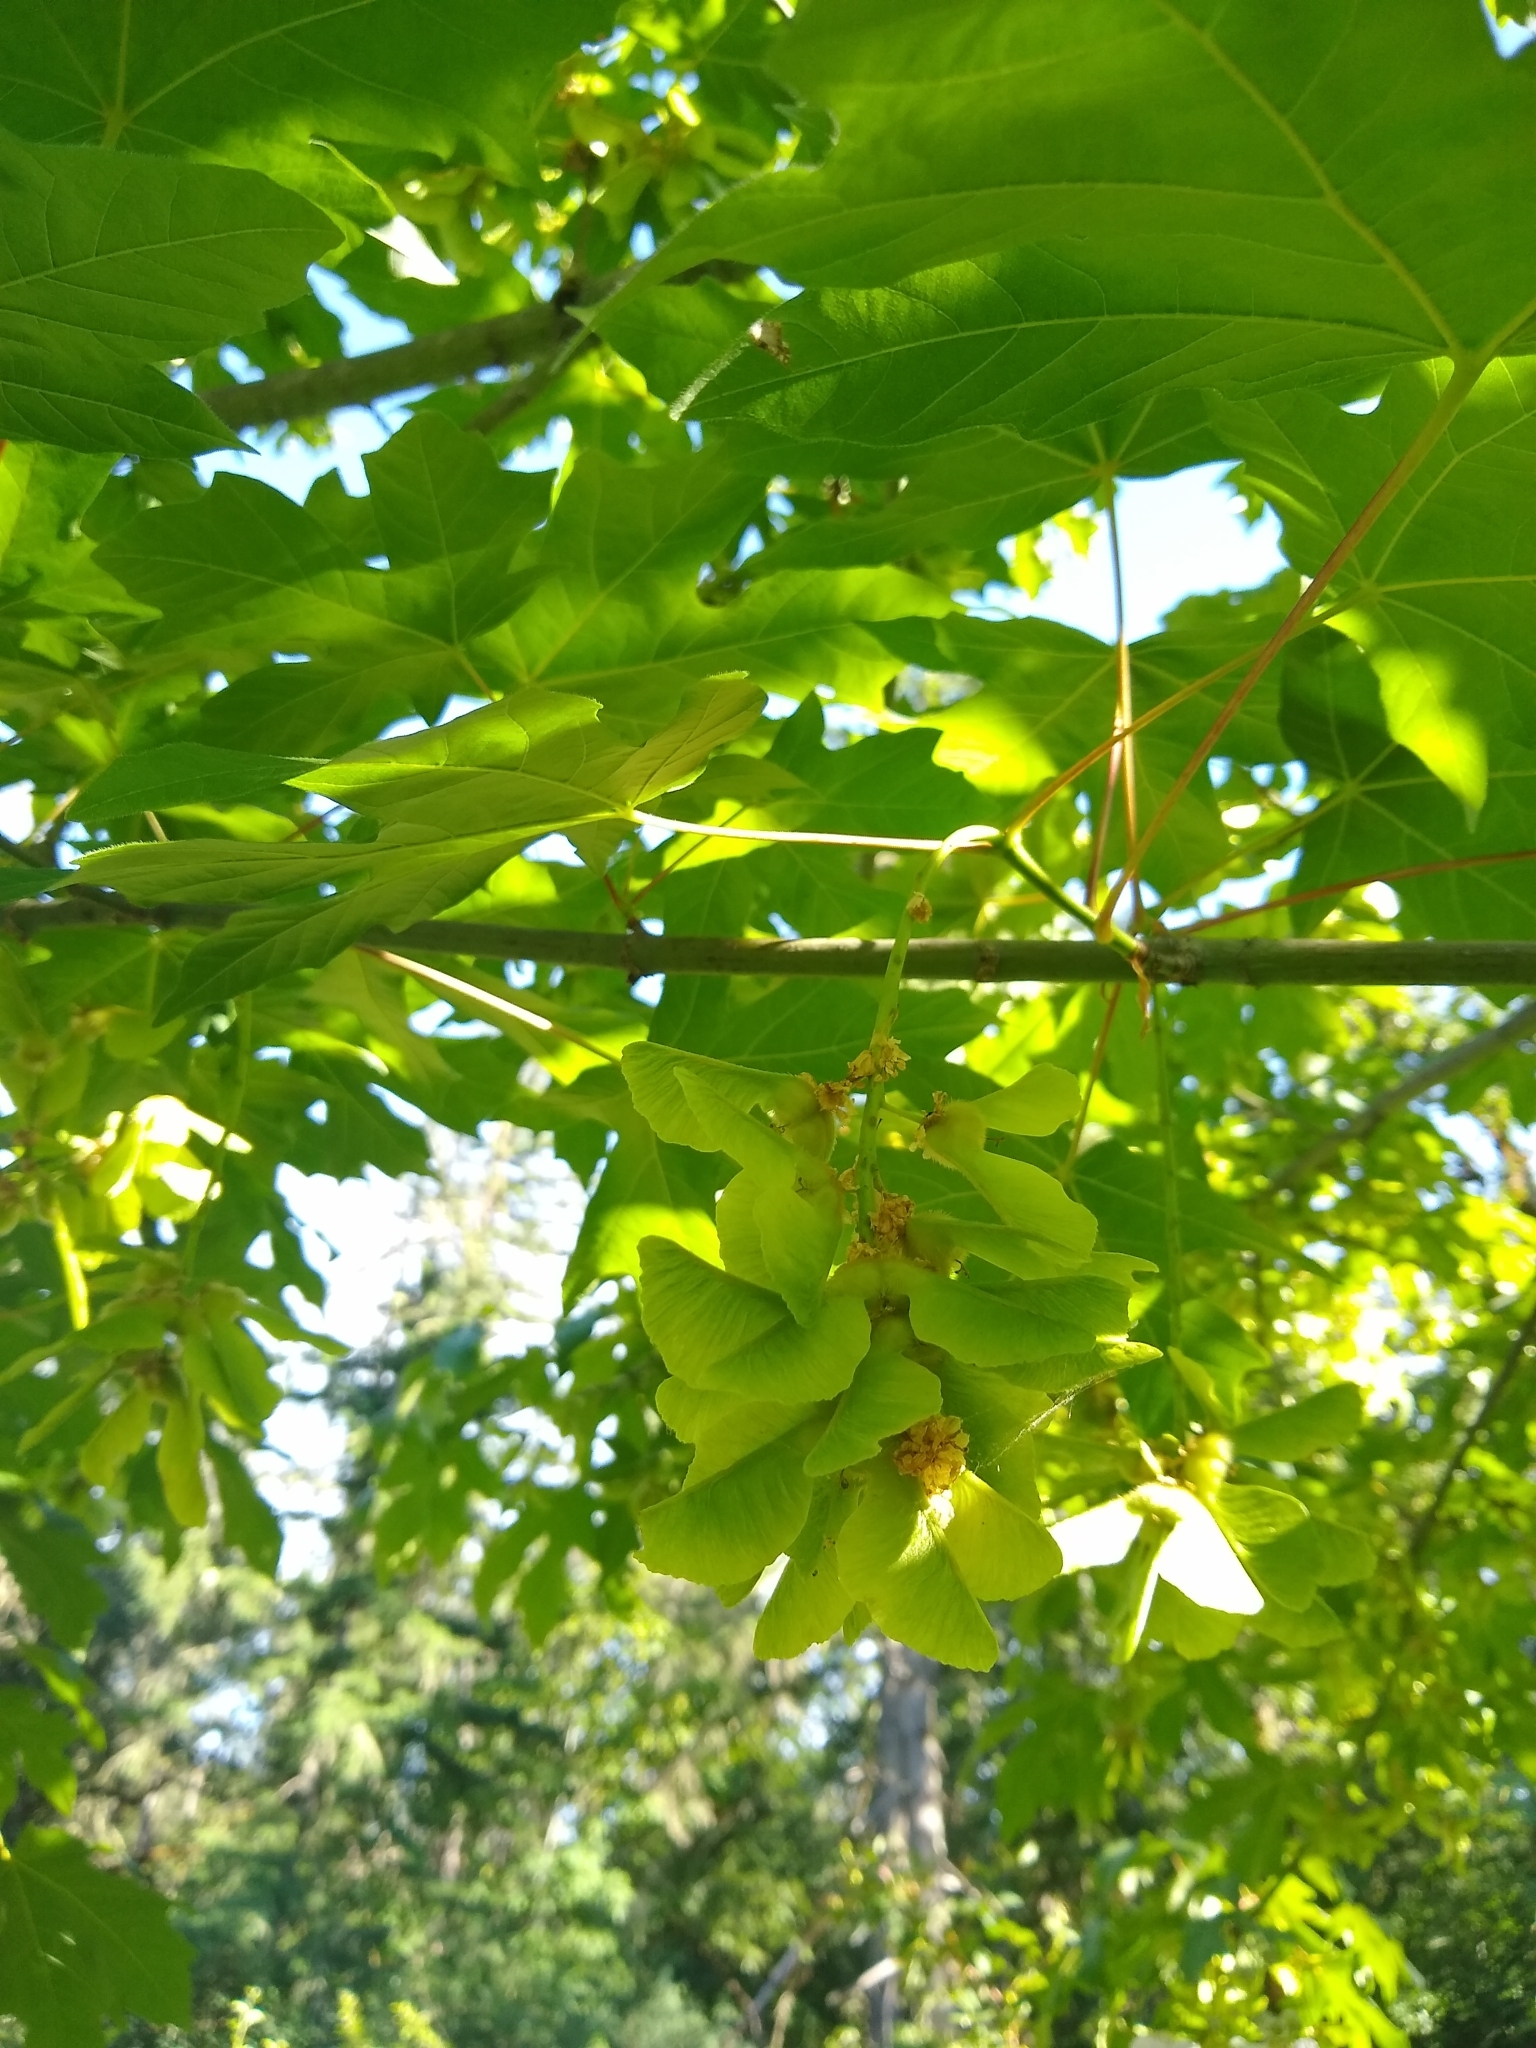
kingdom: Plantae
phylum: Tracheophyta
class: Magnoliopsida
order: Sapindales
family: Sapindaceae
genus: Acer
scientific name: Acer macrophyllum
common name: Oregon maple
